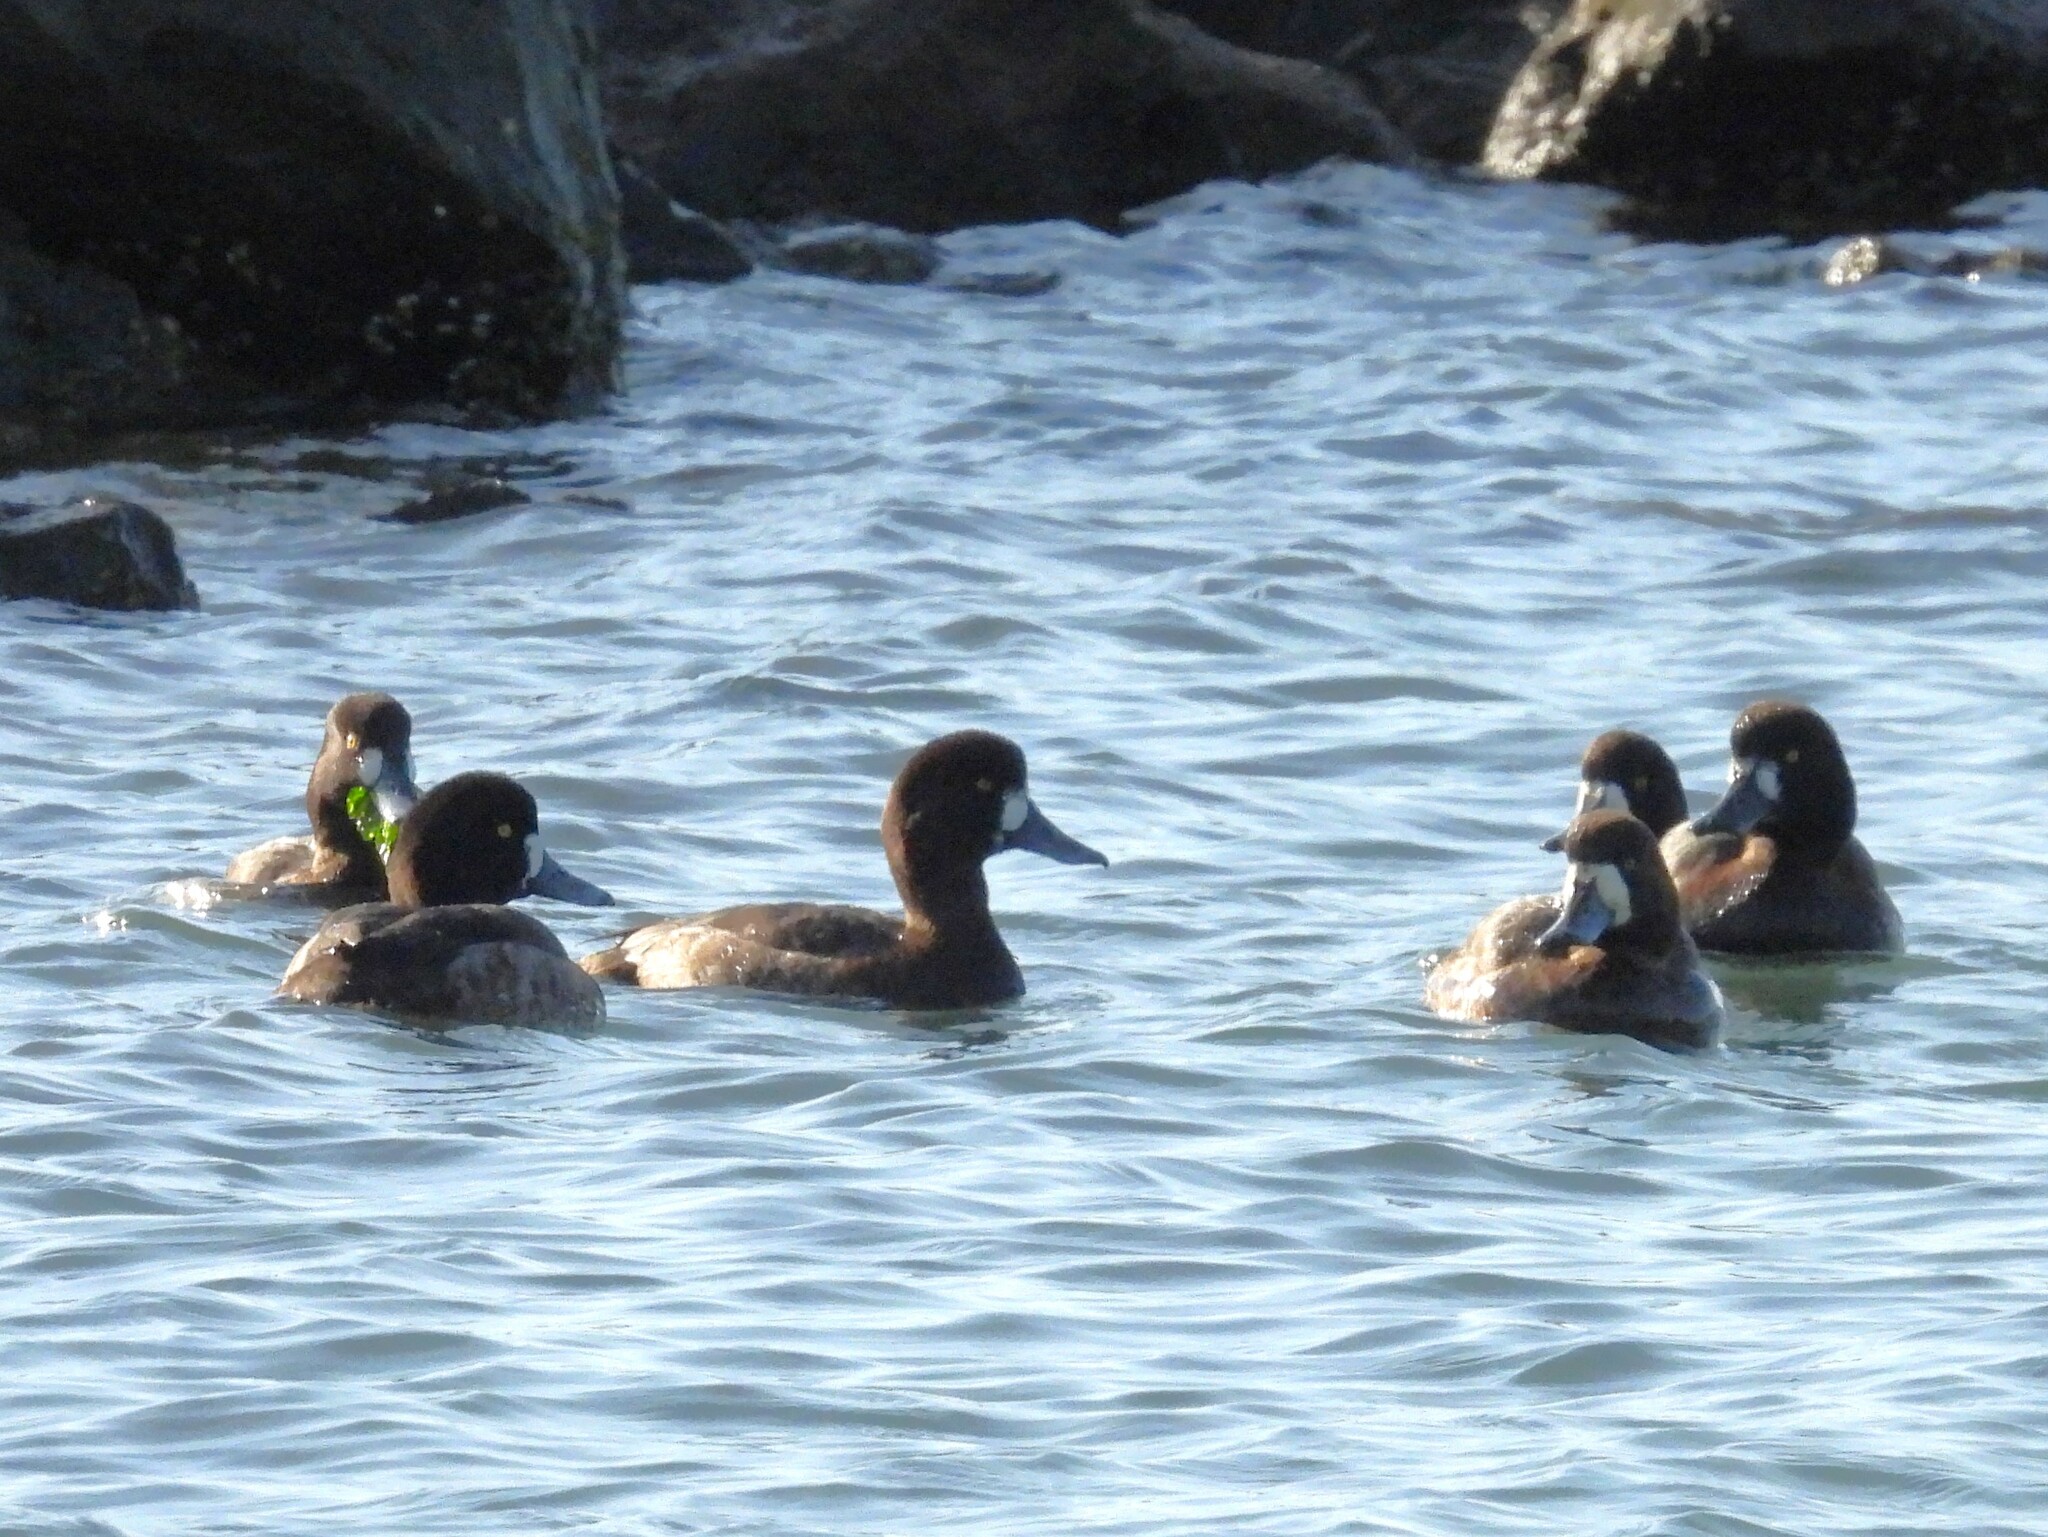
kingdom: Animalia
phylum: Chordata
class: Aves
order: Anseriformes
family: Anatidae
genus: Aythya
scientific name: Aythya marila
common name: Greater scaup
